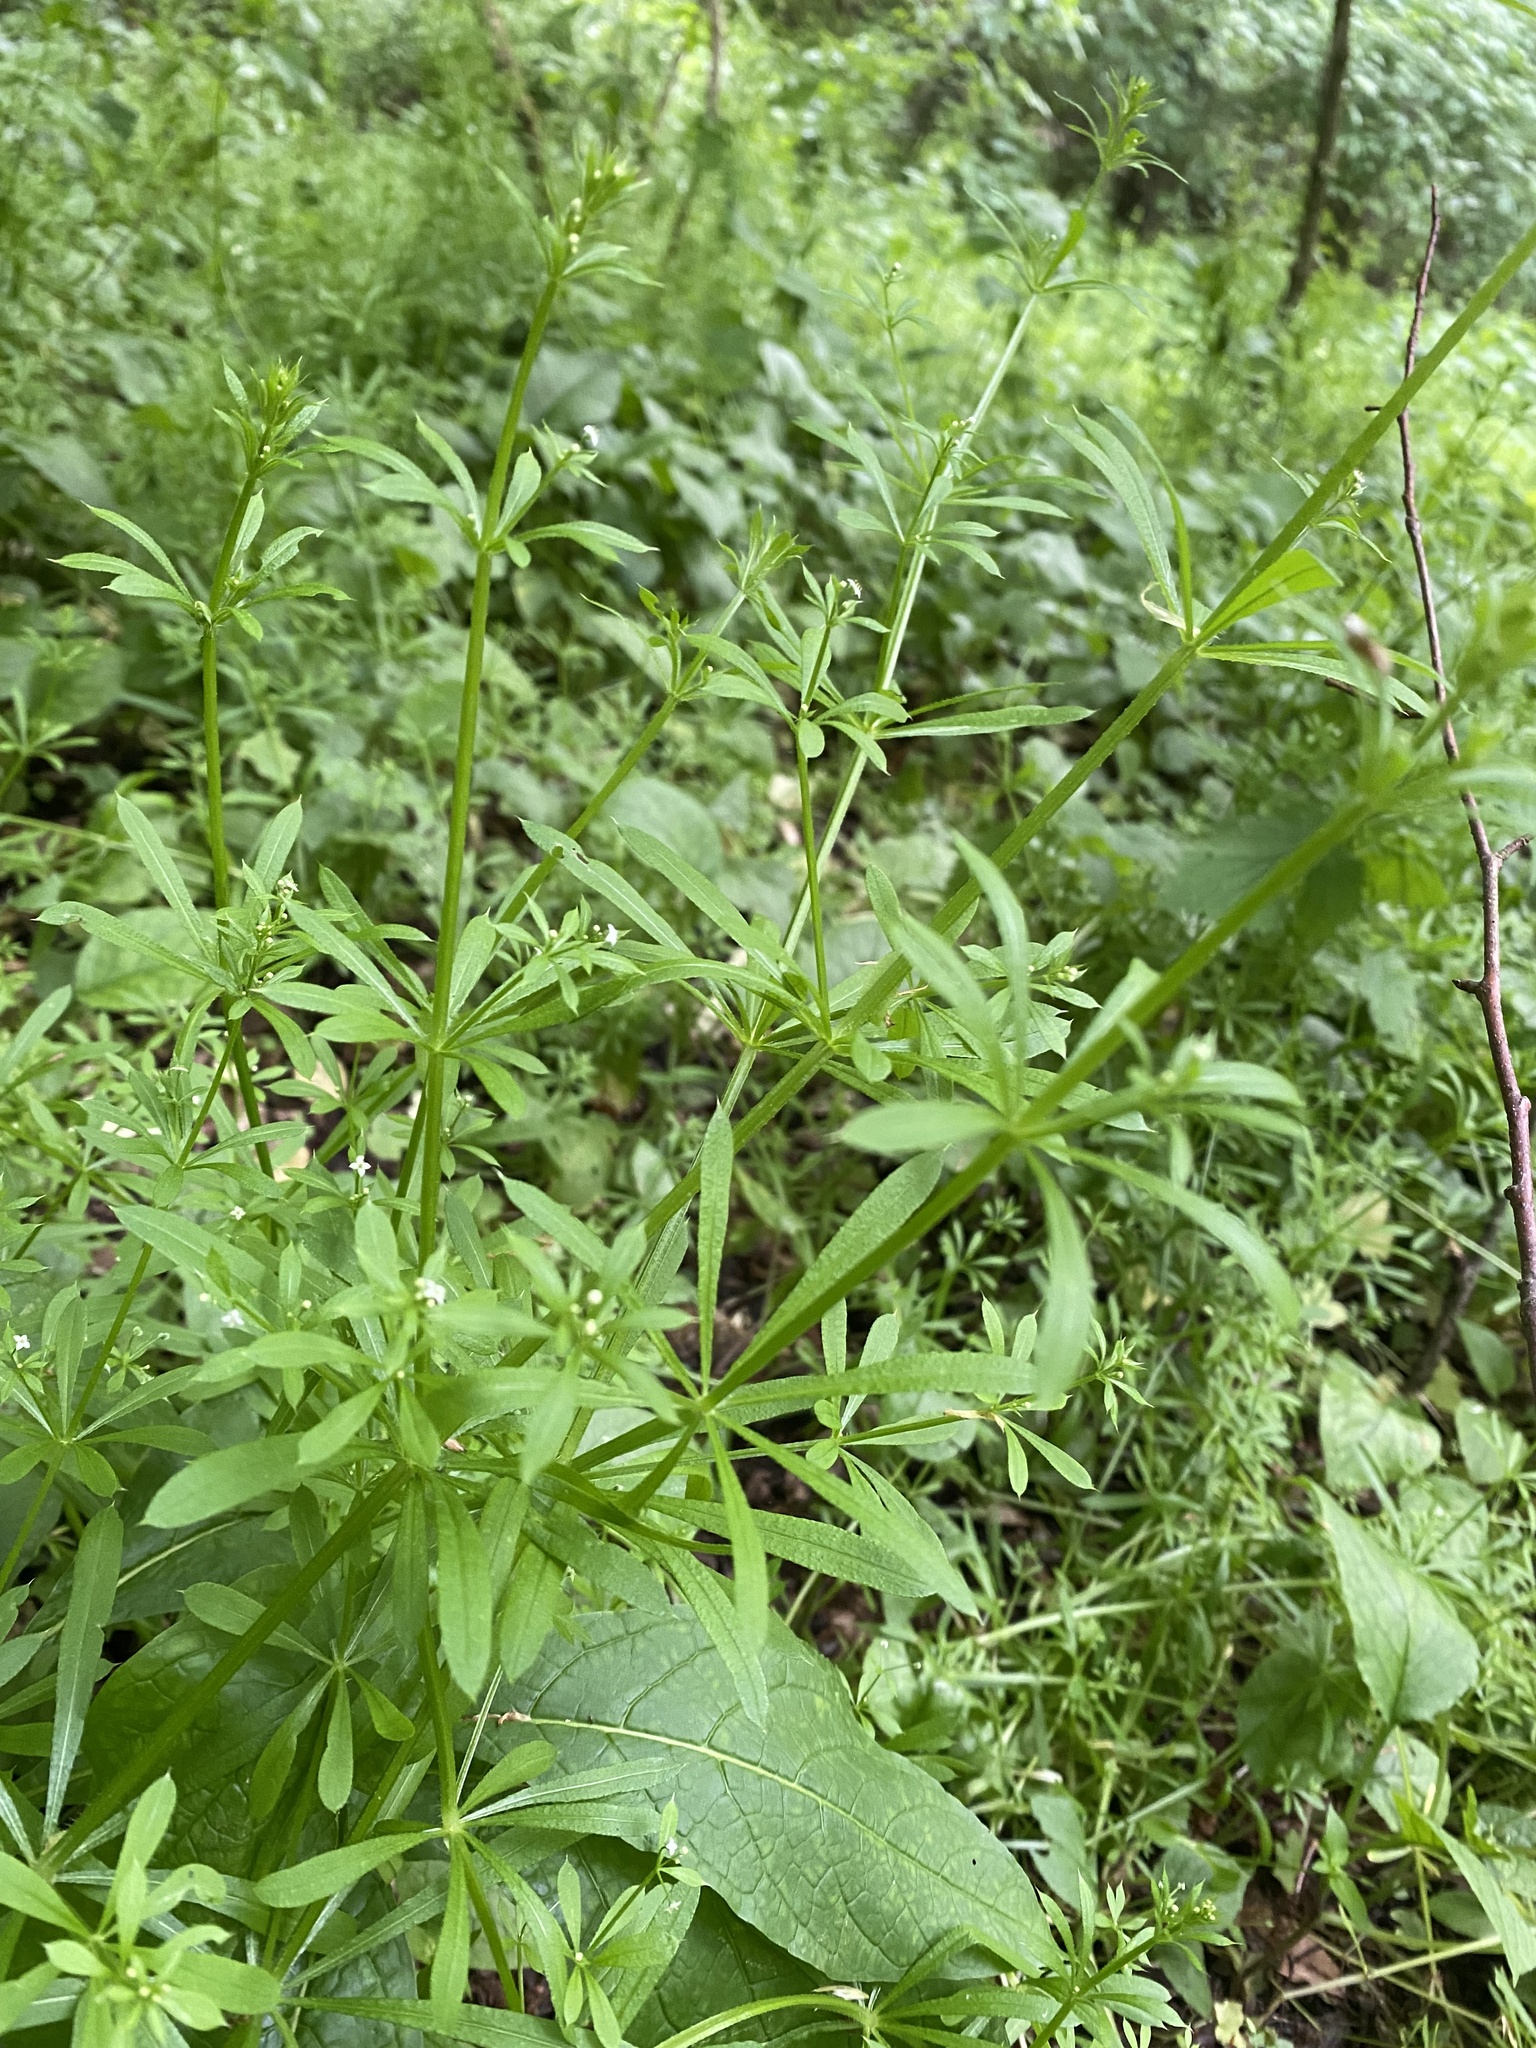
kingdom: Plantae
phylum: Tracheophyta
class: Magnoliopsida
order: Gentianales
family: Rubiaceae
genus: Galium
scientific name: Galium aparine
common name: Cleavers
